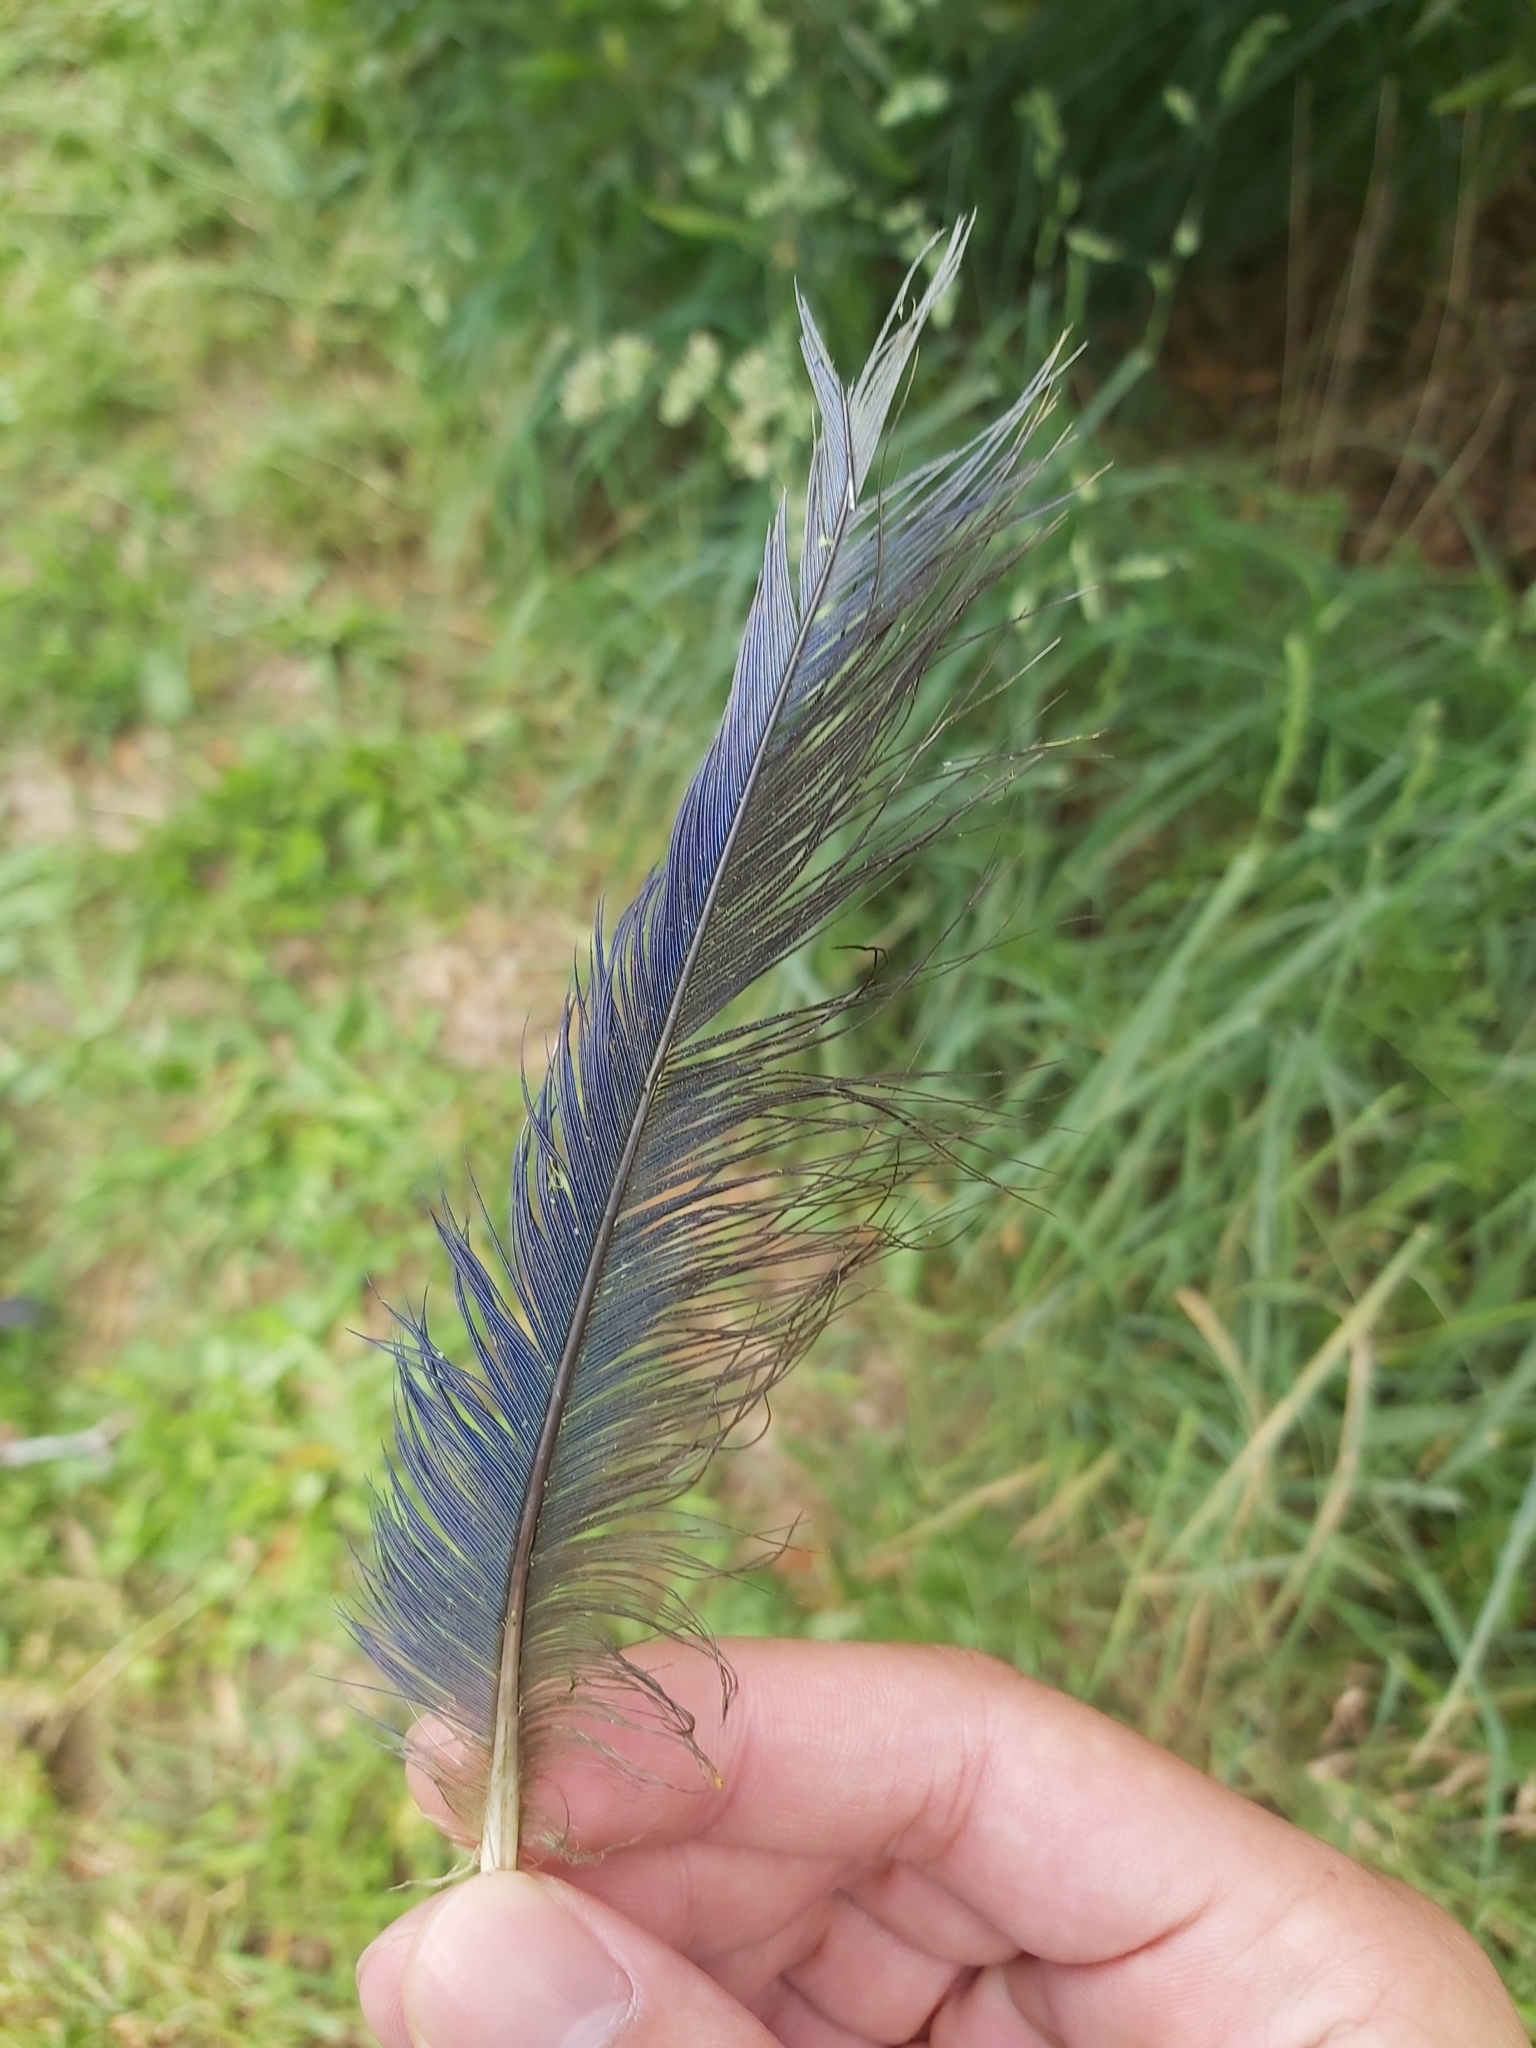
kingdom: Animalia
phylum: Chordata
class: Aves
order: Psittaciformes
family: Psittacidae
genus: Platycercus
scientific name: Platycercus
